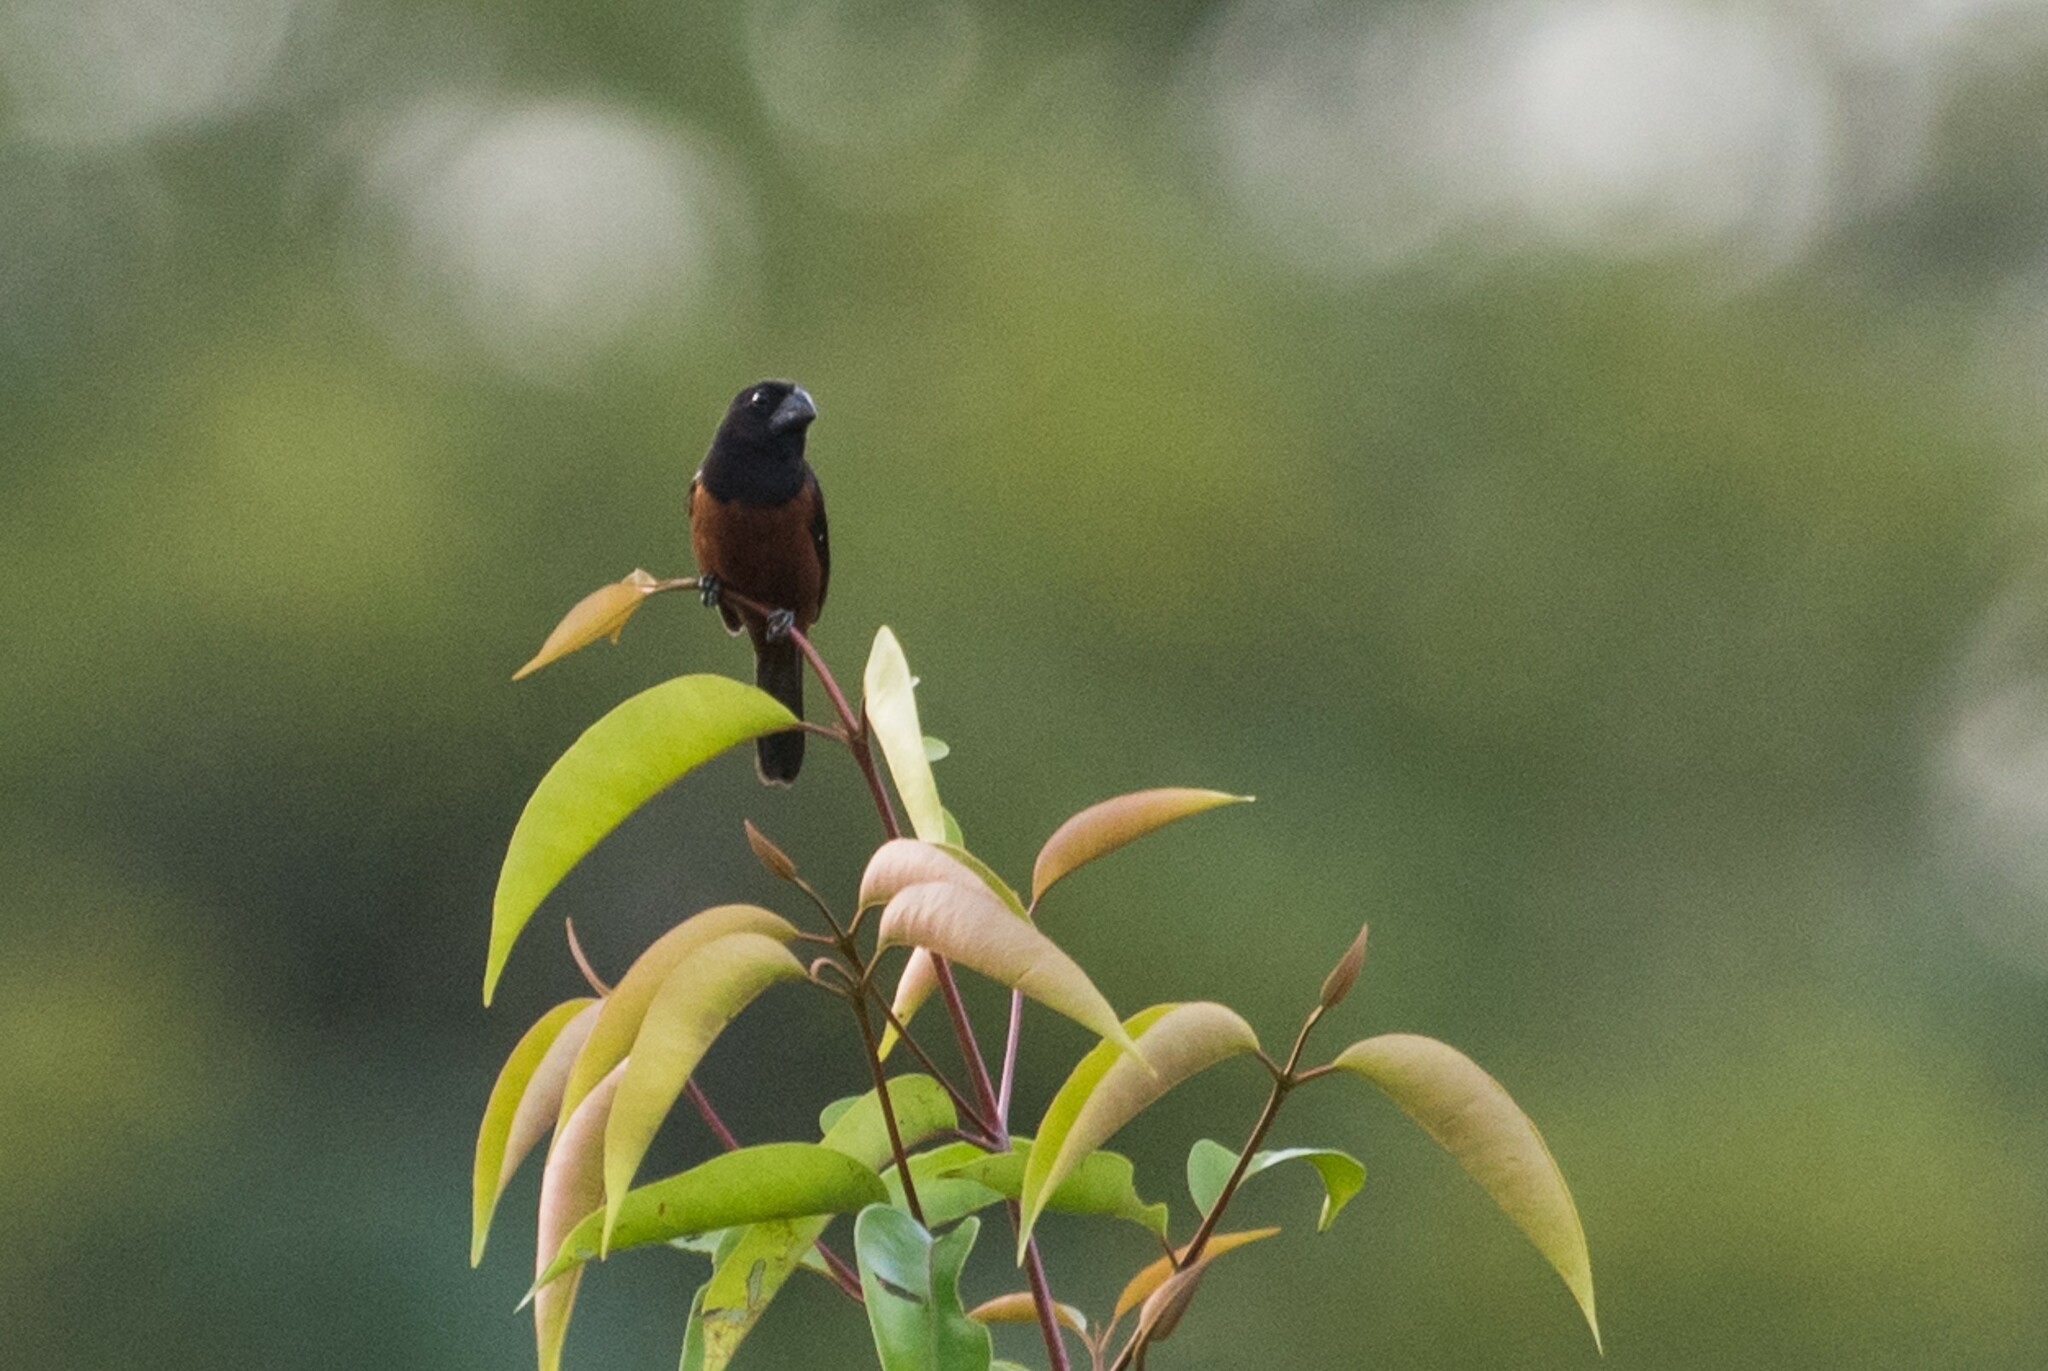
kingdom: Animalia
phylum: Chordata
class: Aves
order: Passeriformes
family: Thraupidae
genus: Sporophila
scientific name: Sporophila angolensis
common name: Chestnut-bellied seed-finch
